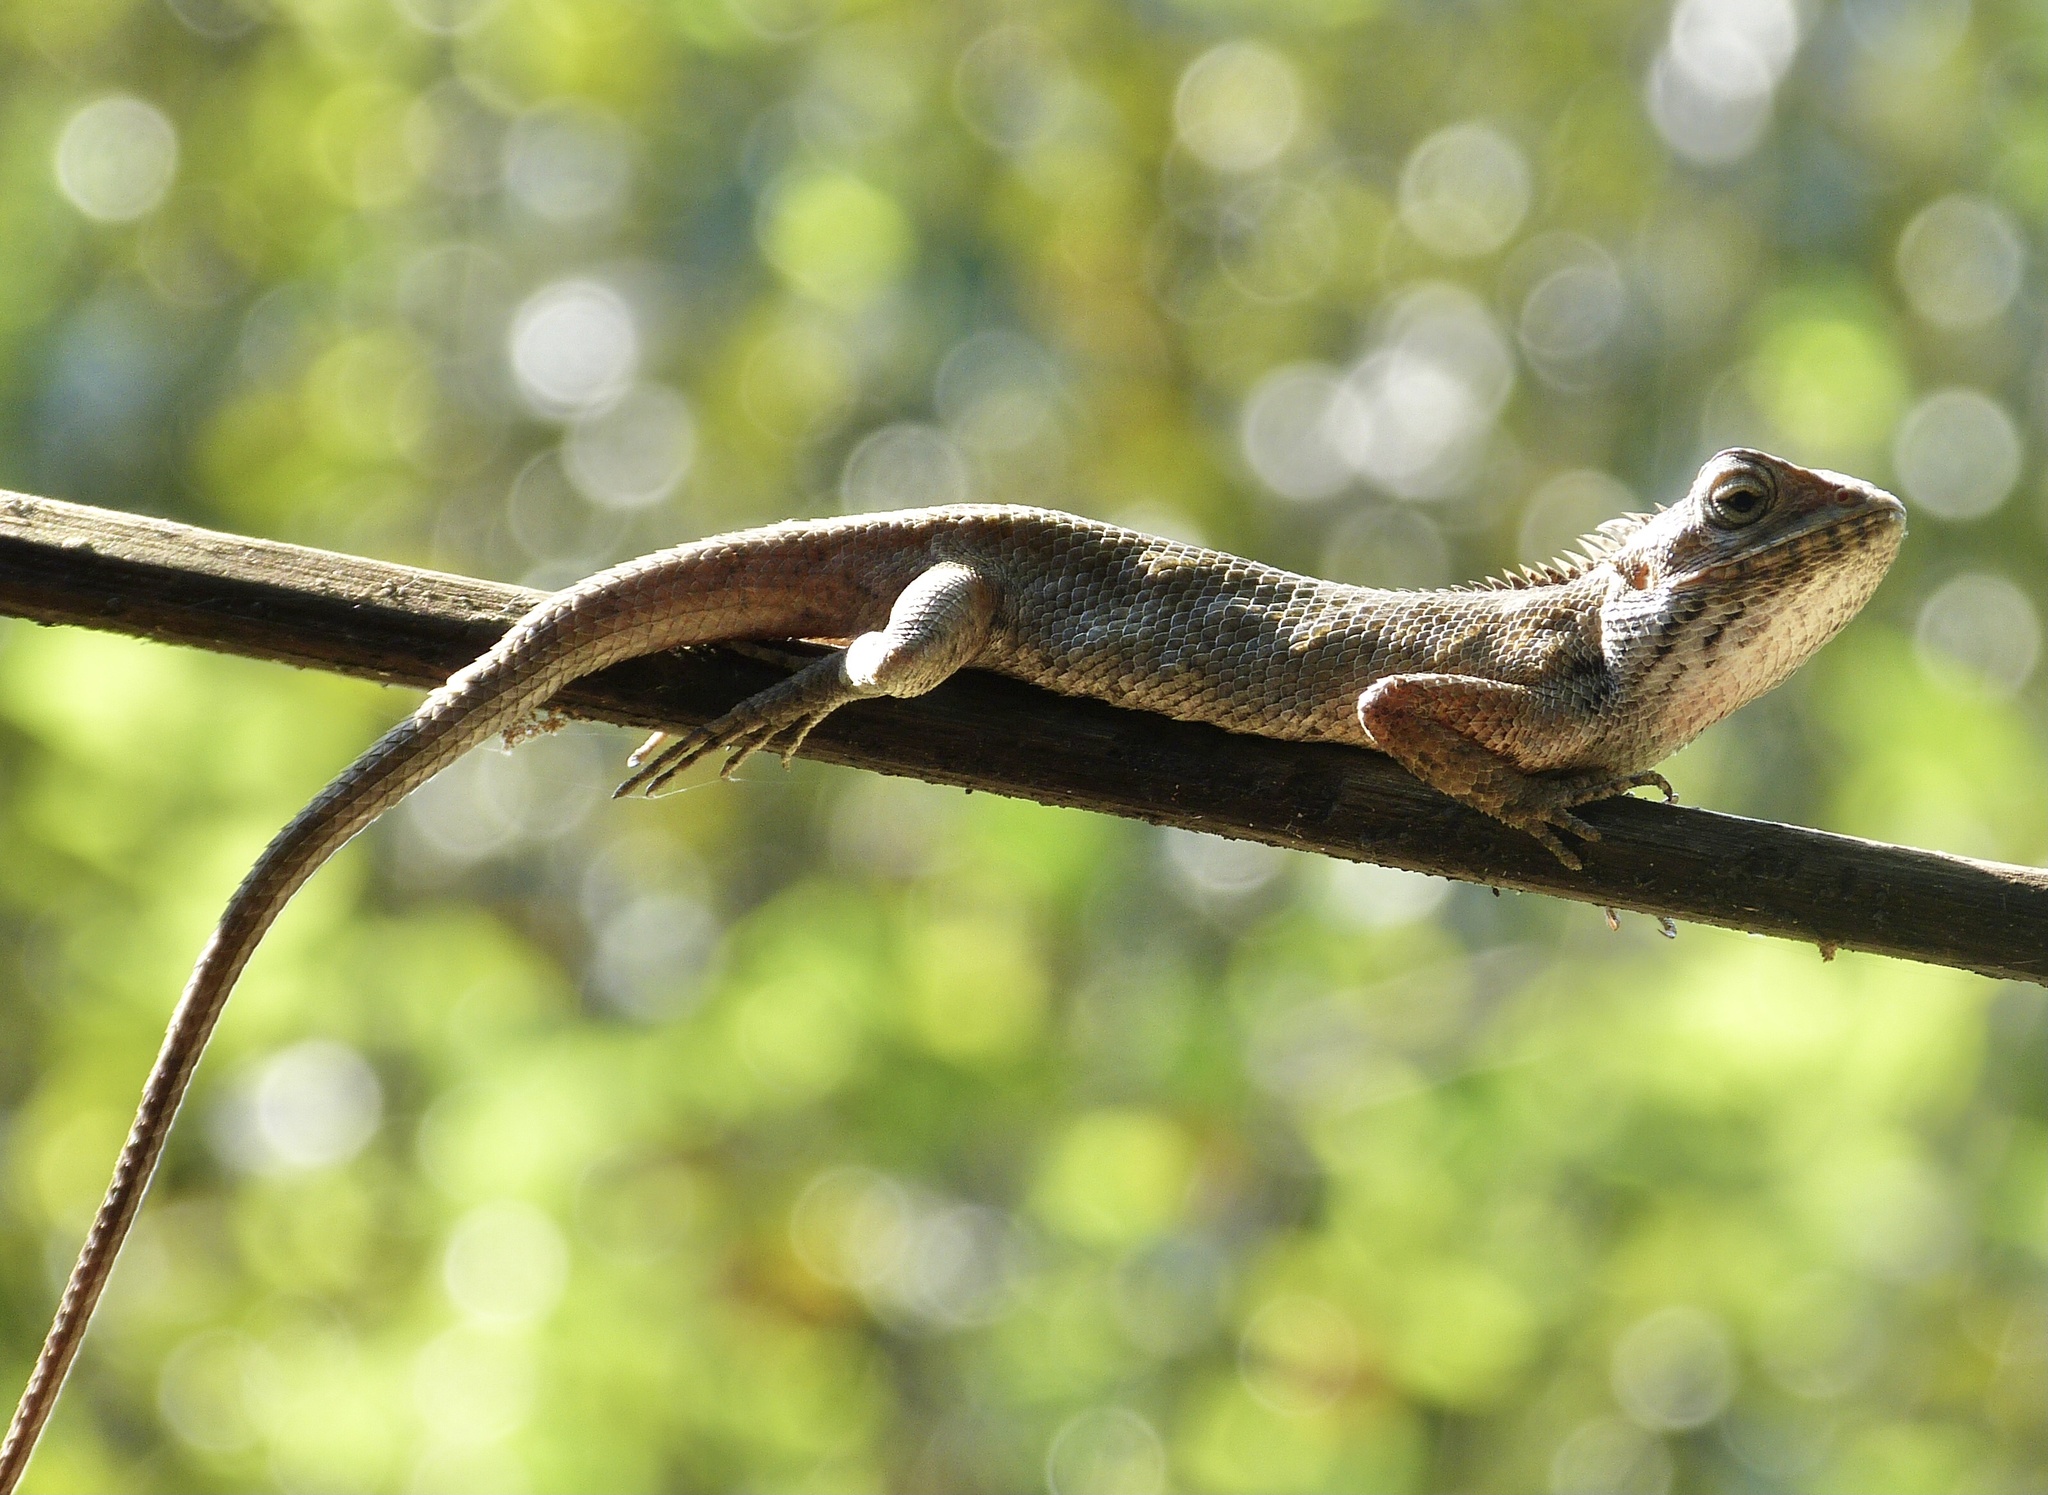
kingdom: Animalia
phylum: Chordata
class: Squamata
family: Agamidae
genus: Calotes
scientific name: Calotes versicolor
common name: Oriental garden lizard
